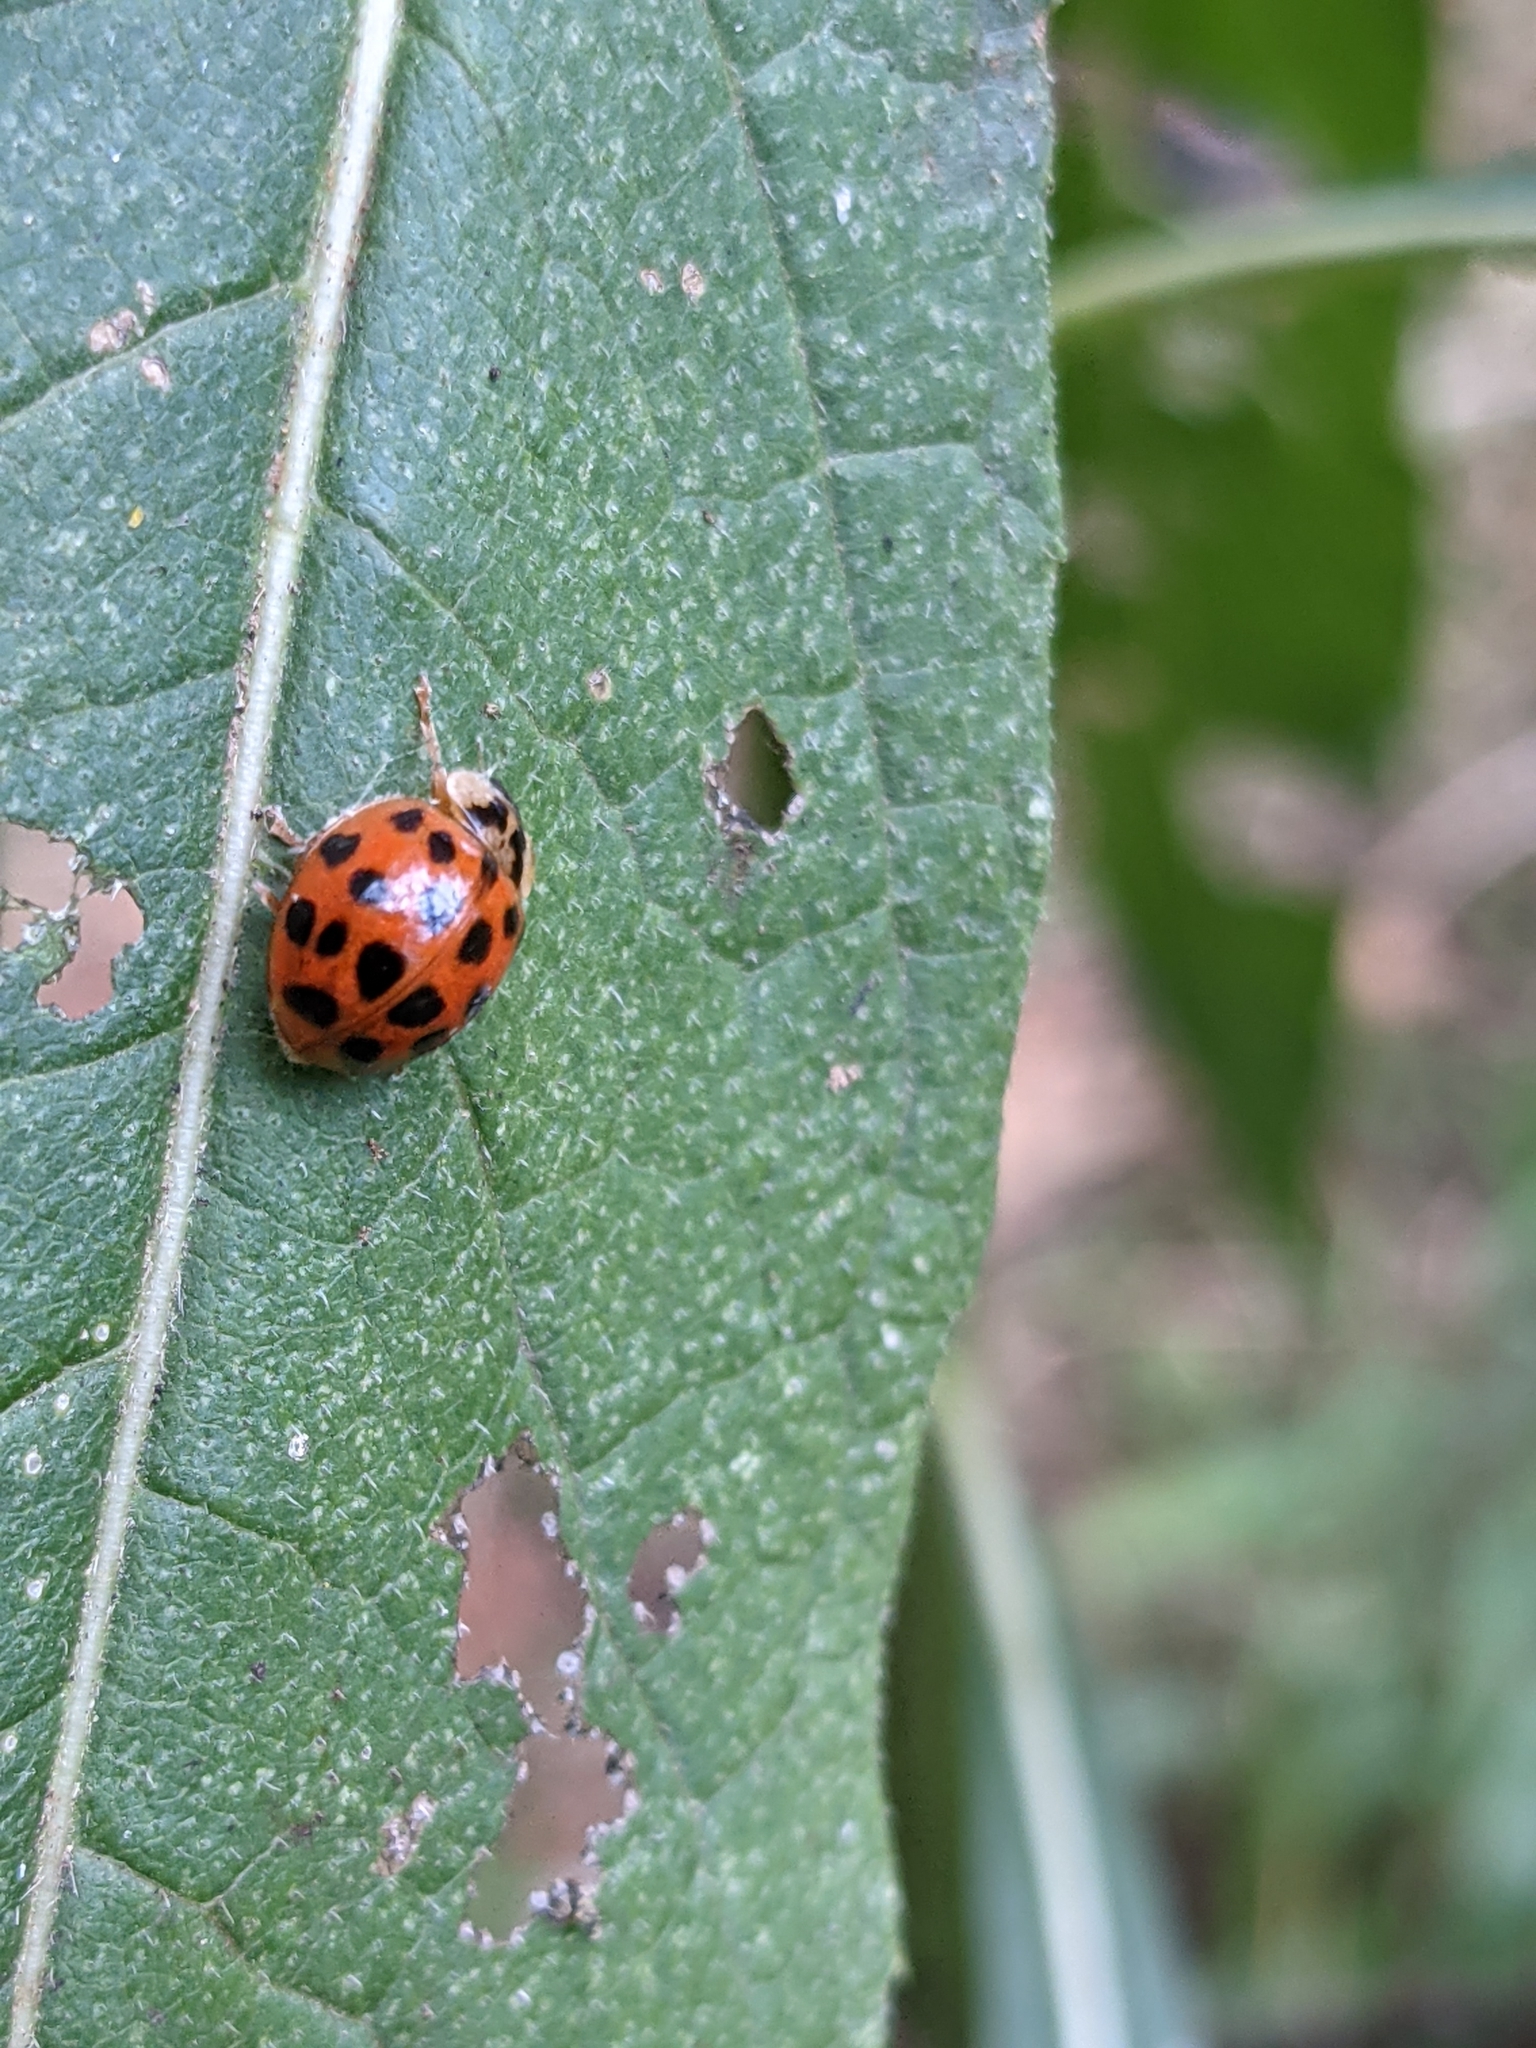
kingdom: Animalia
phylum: Arthropoda
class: Insecta
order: Coleoptera
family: Coccinellidae
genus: Harmonia
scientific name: Harmonia axyridis
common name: Harlequin ladybird
